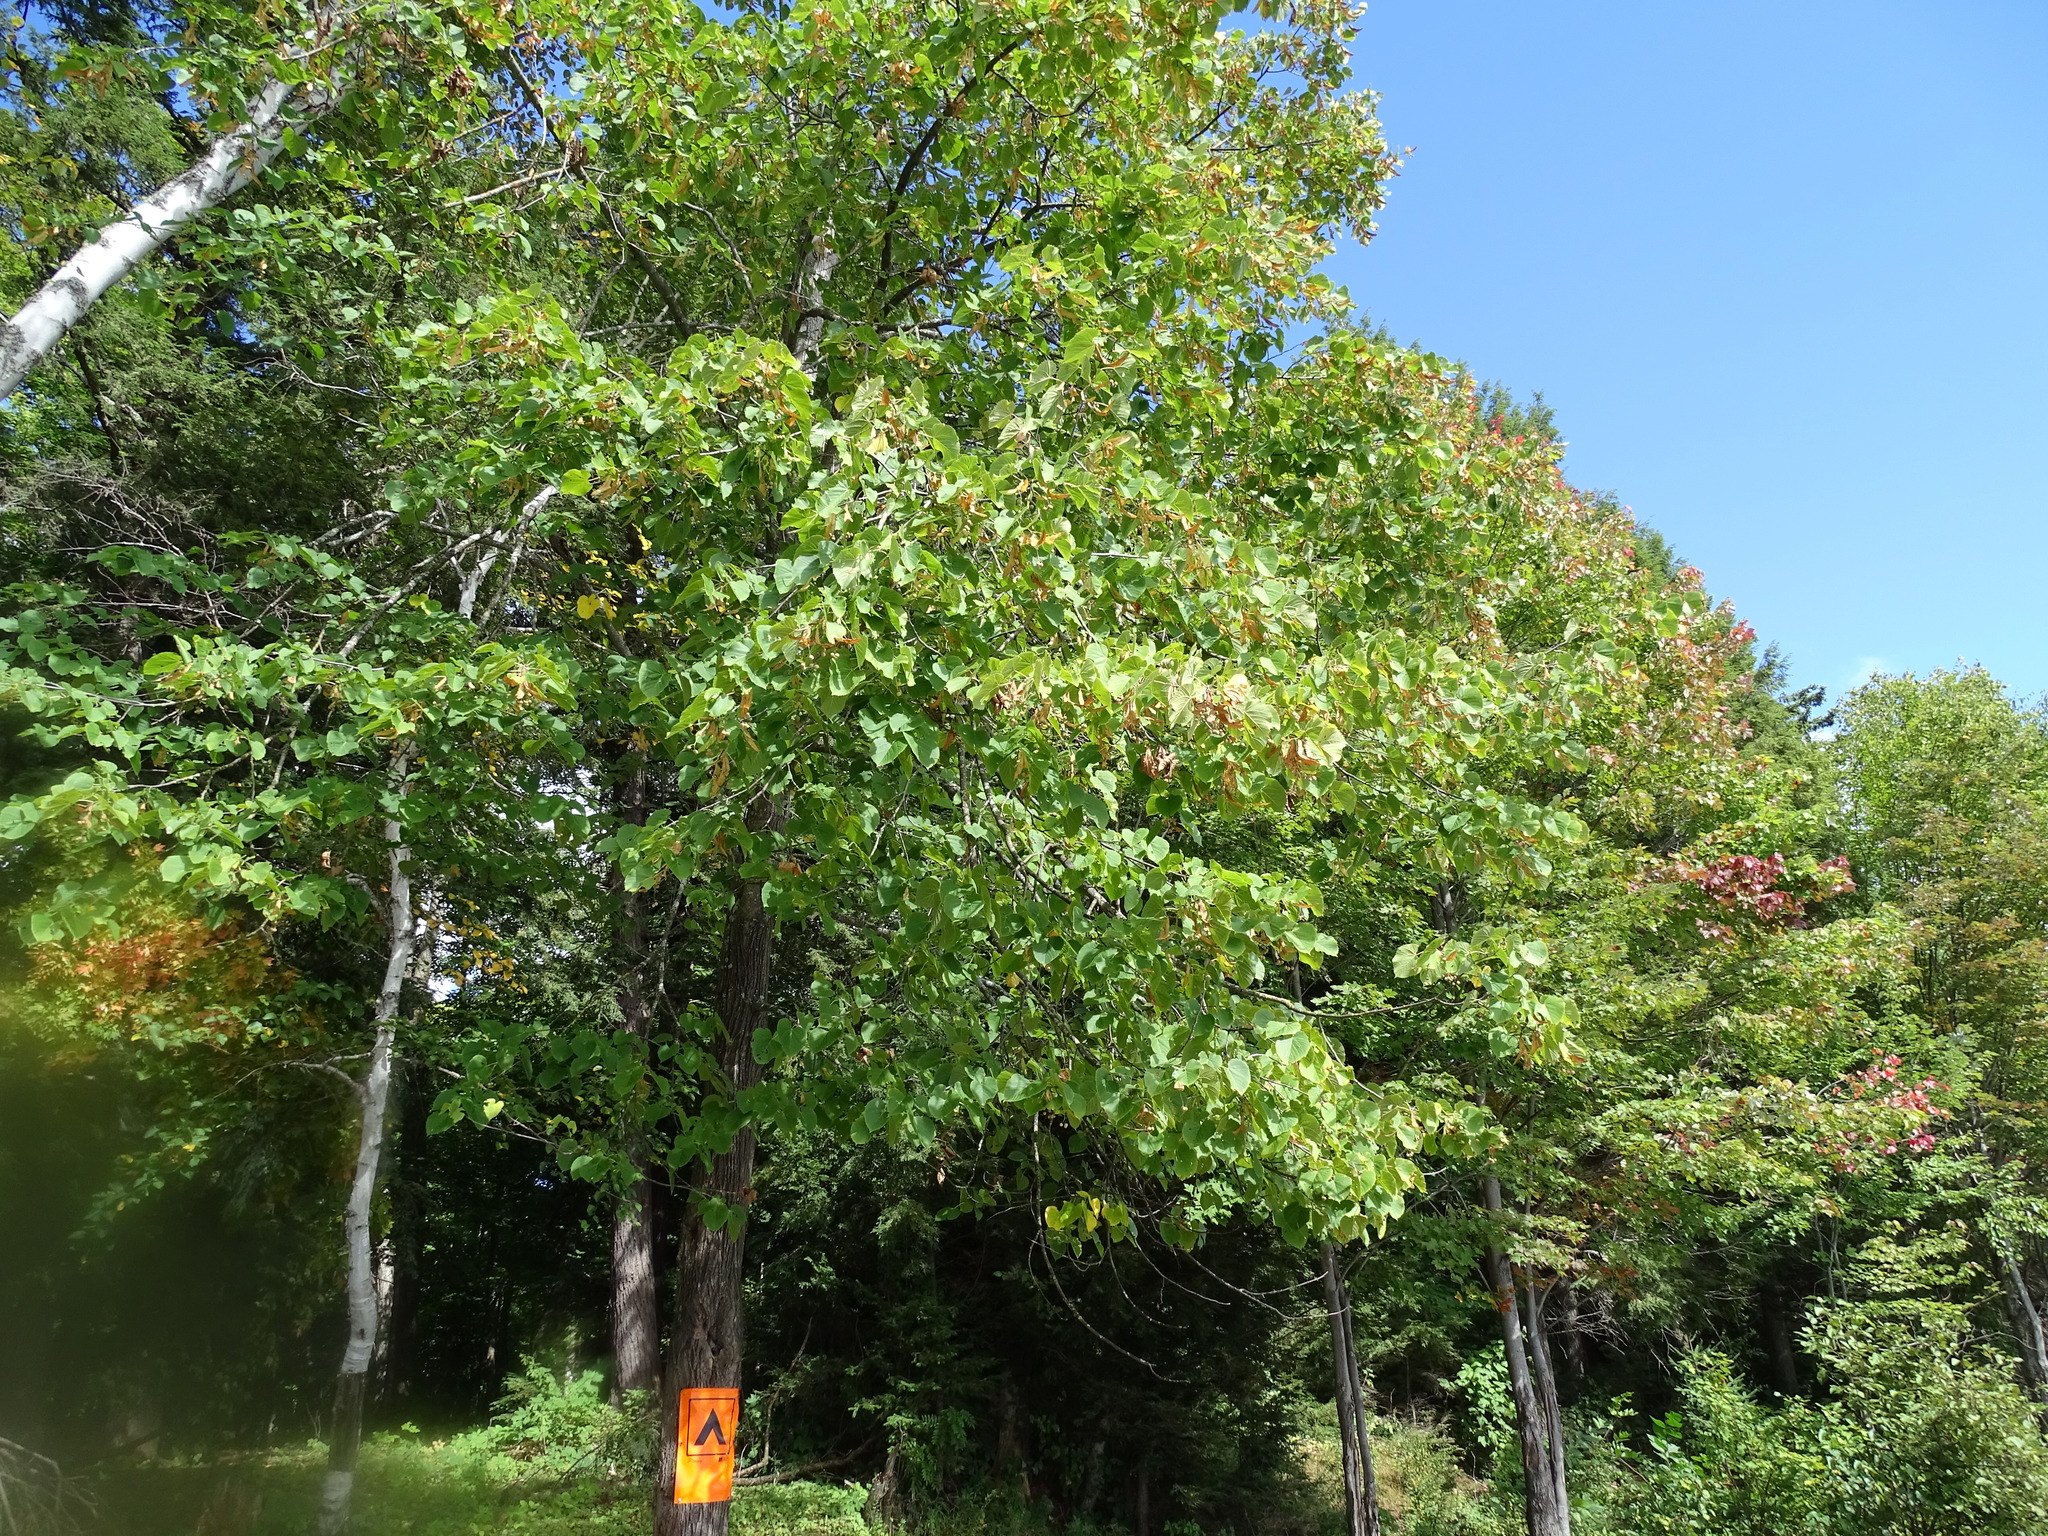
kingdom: Plantae
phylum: Tracheophyta
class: Magnoliopsida
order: Malvales
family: Malvaceae
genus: Tilia
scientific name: Tilia americana
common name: Basswood
